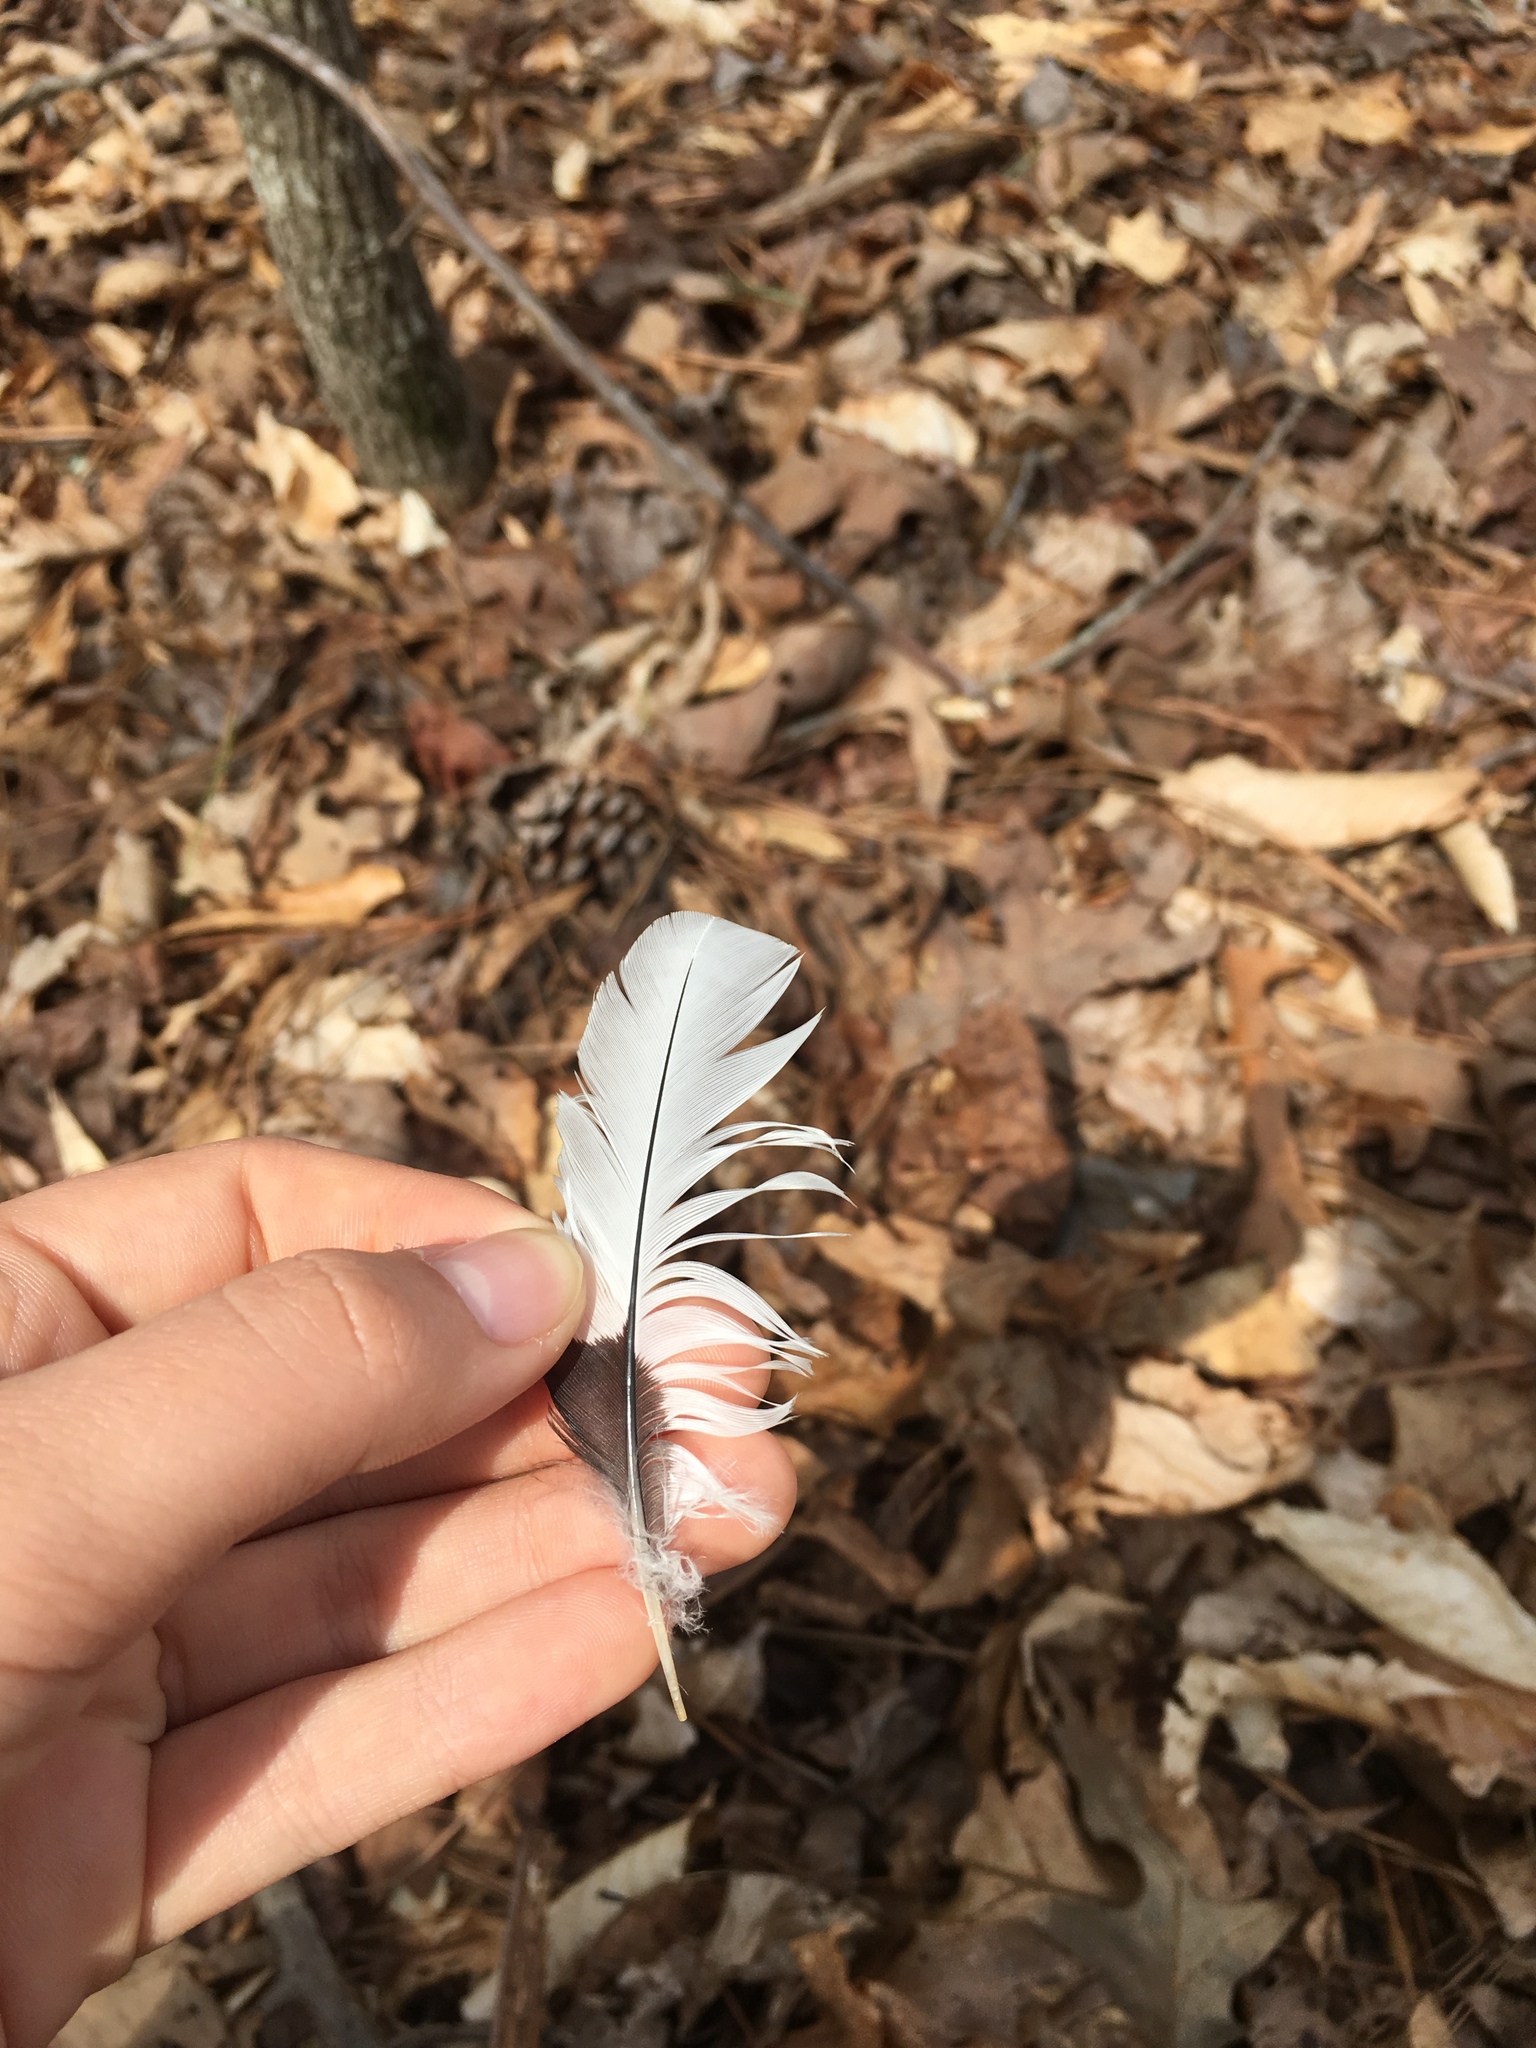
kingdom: Animalia
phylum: Chordata
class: Aves
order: Piciformes
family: Picidae
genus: Melanerpes
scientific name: Melanerpes erythrocephalus
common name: Red-headed woodpecker
